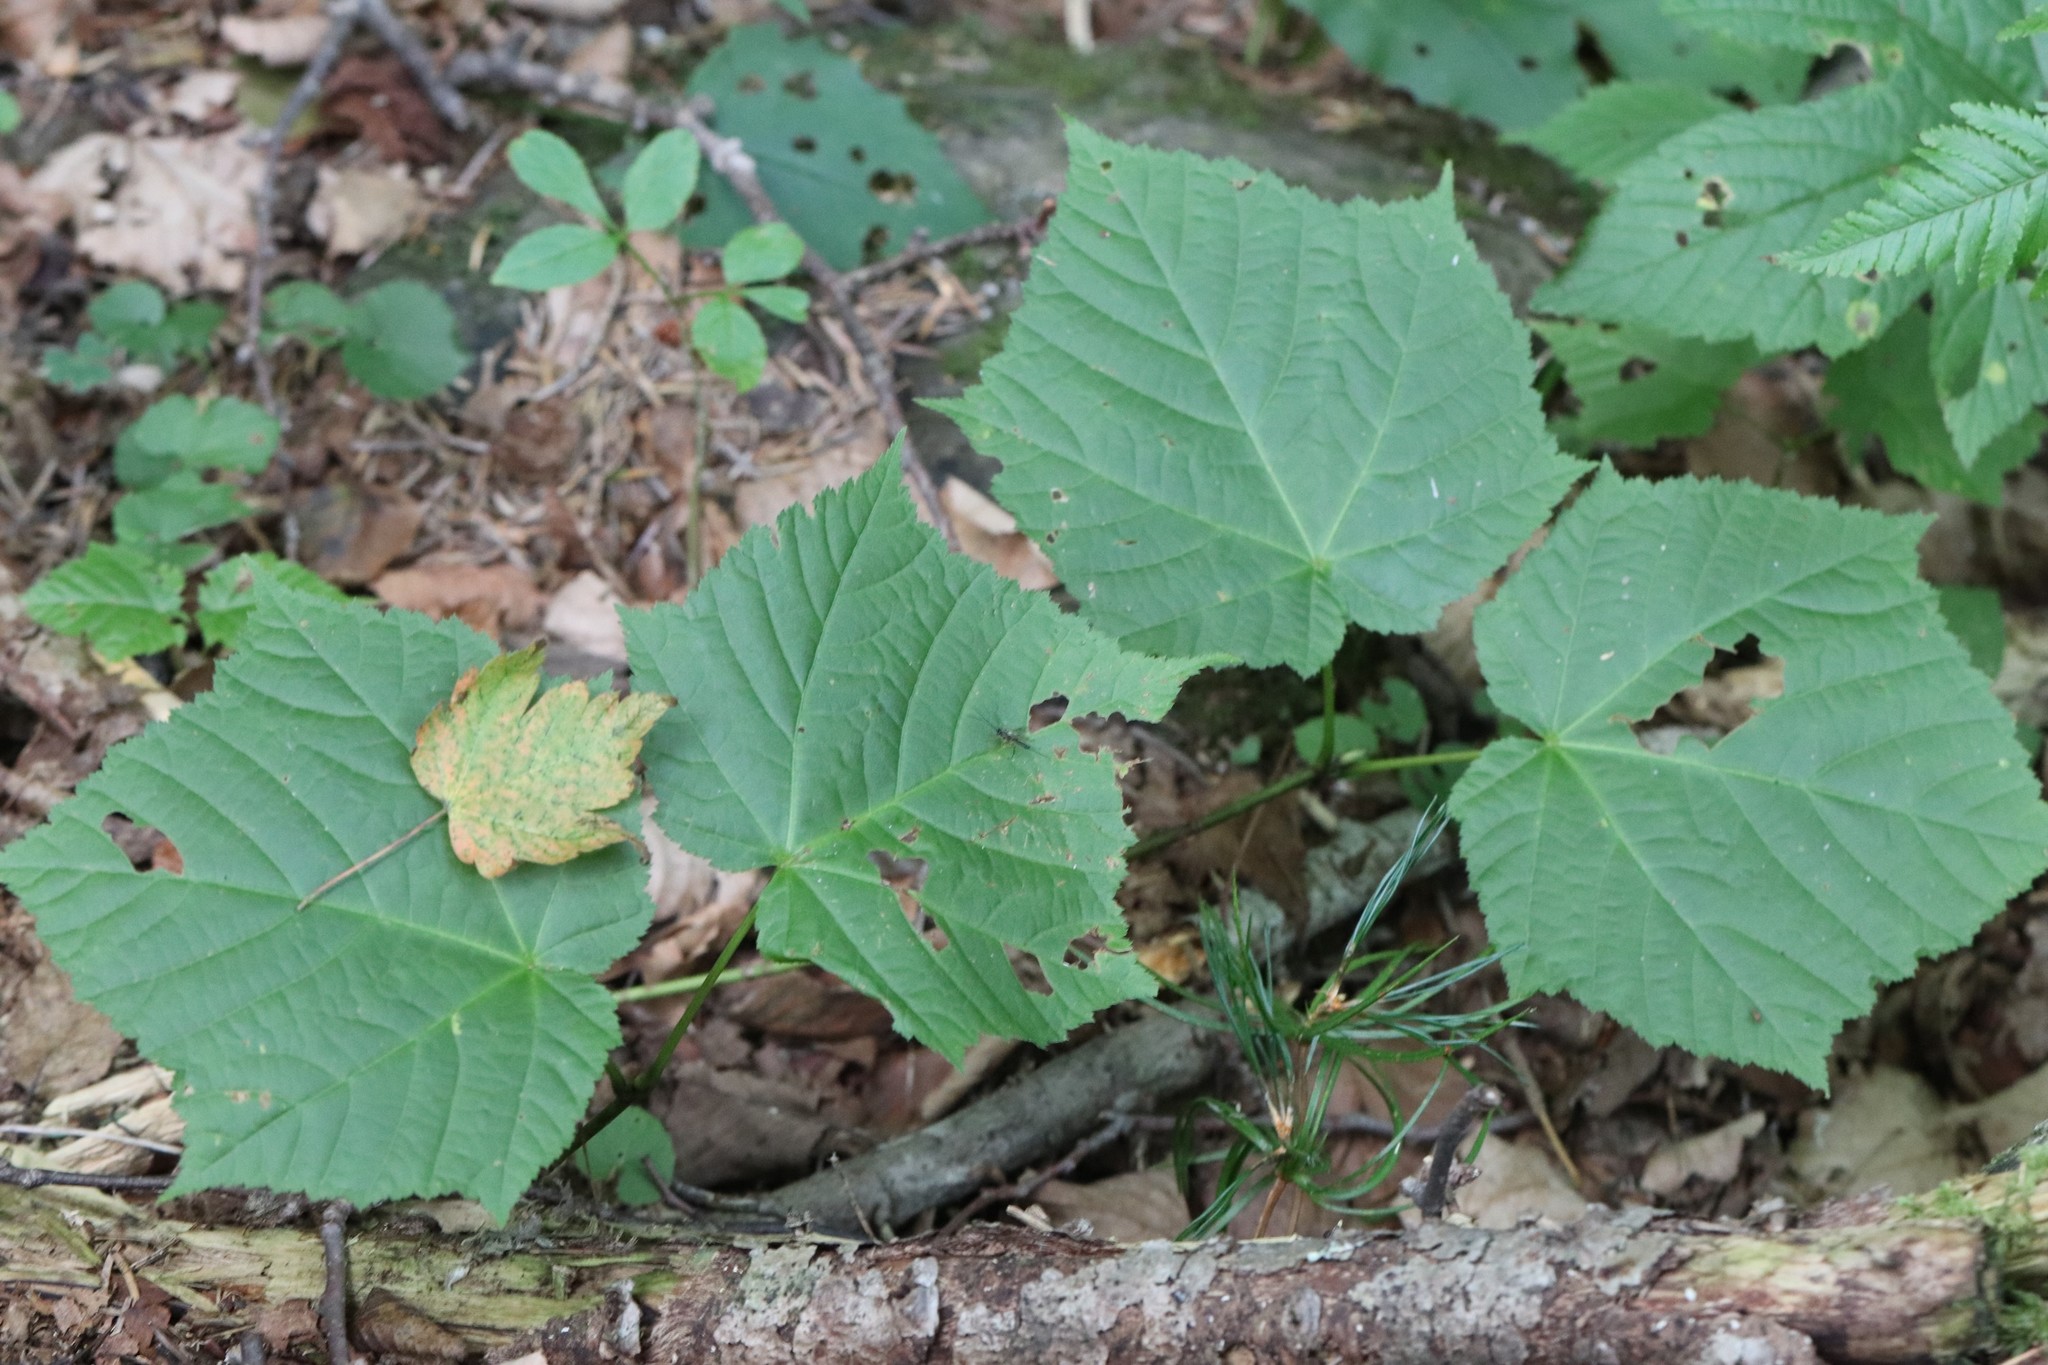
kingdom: Plantae
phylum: Tracheophyta
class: Magnoliopsida
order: Sapindales
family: Sapindaceae
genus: Acer
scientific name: Acer tegmentosum
